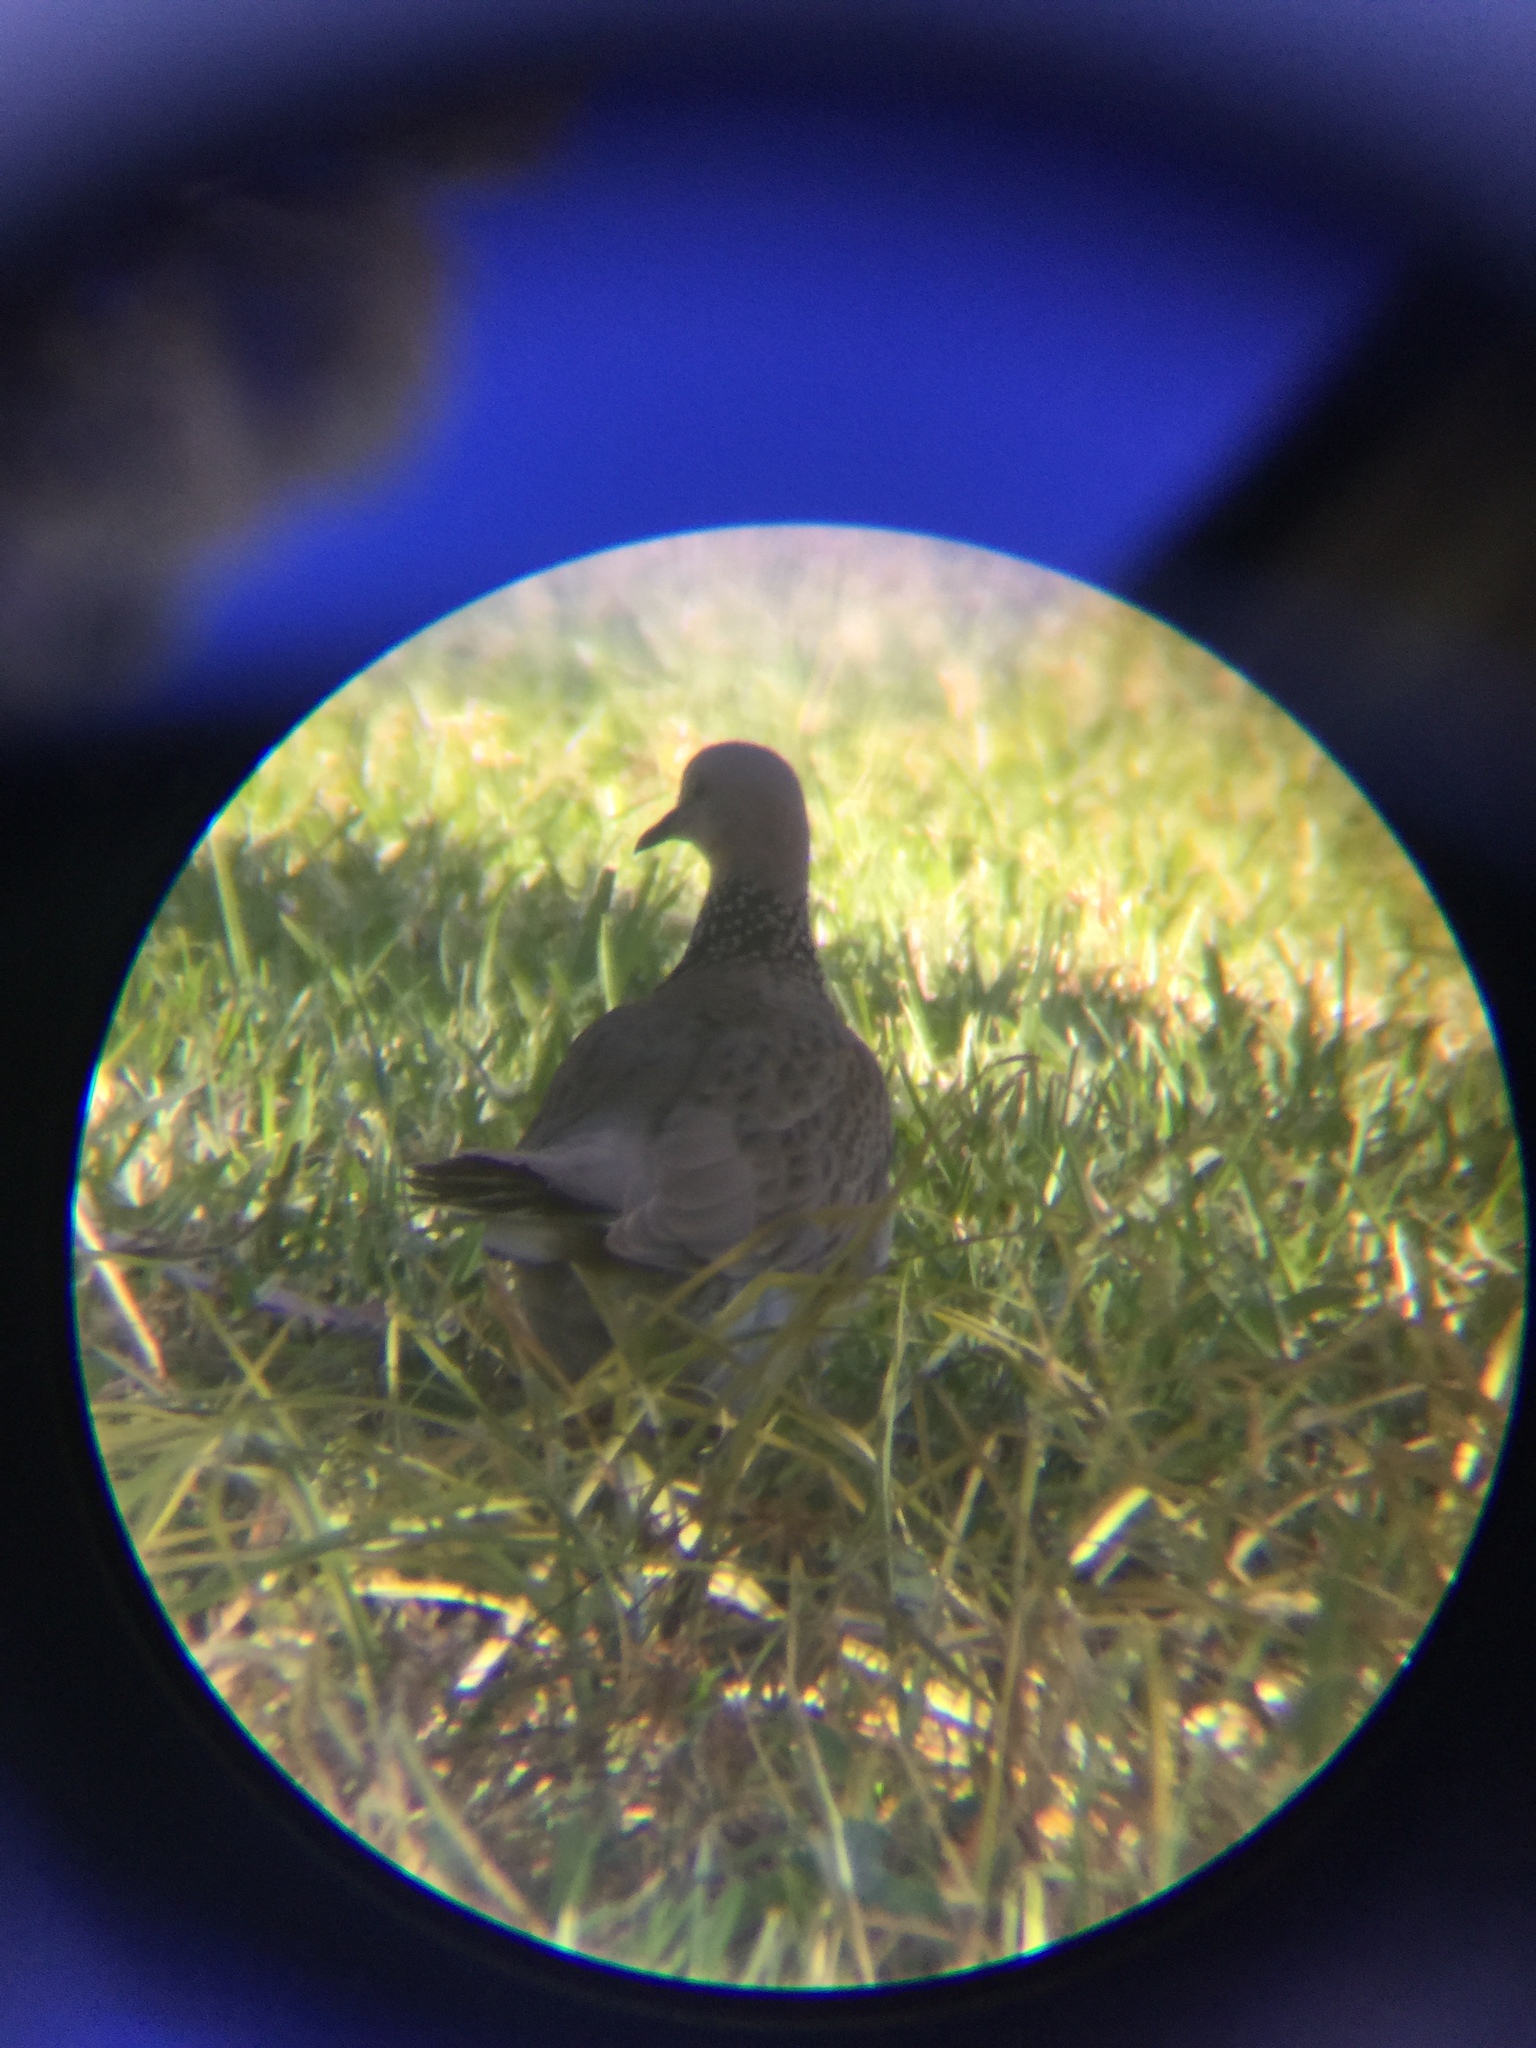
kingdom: Animalia
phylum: Chordata
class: Aves
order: Columbiformes
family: Columbidae
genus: Spilopelia
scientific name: Spilopelia chinensis
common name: Spotted dove
